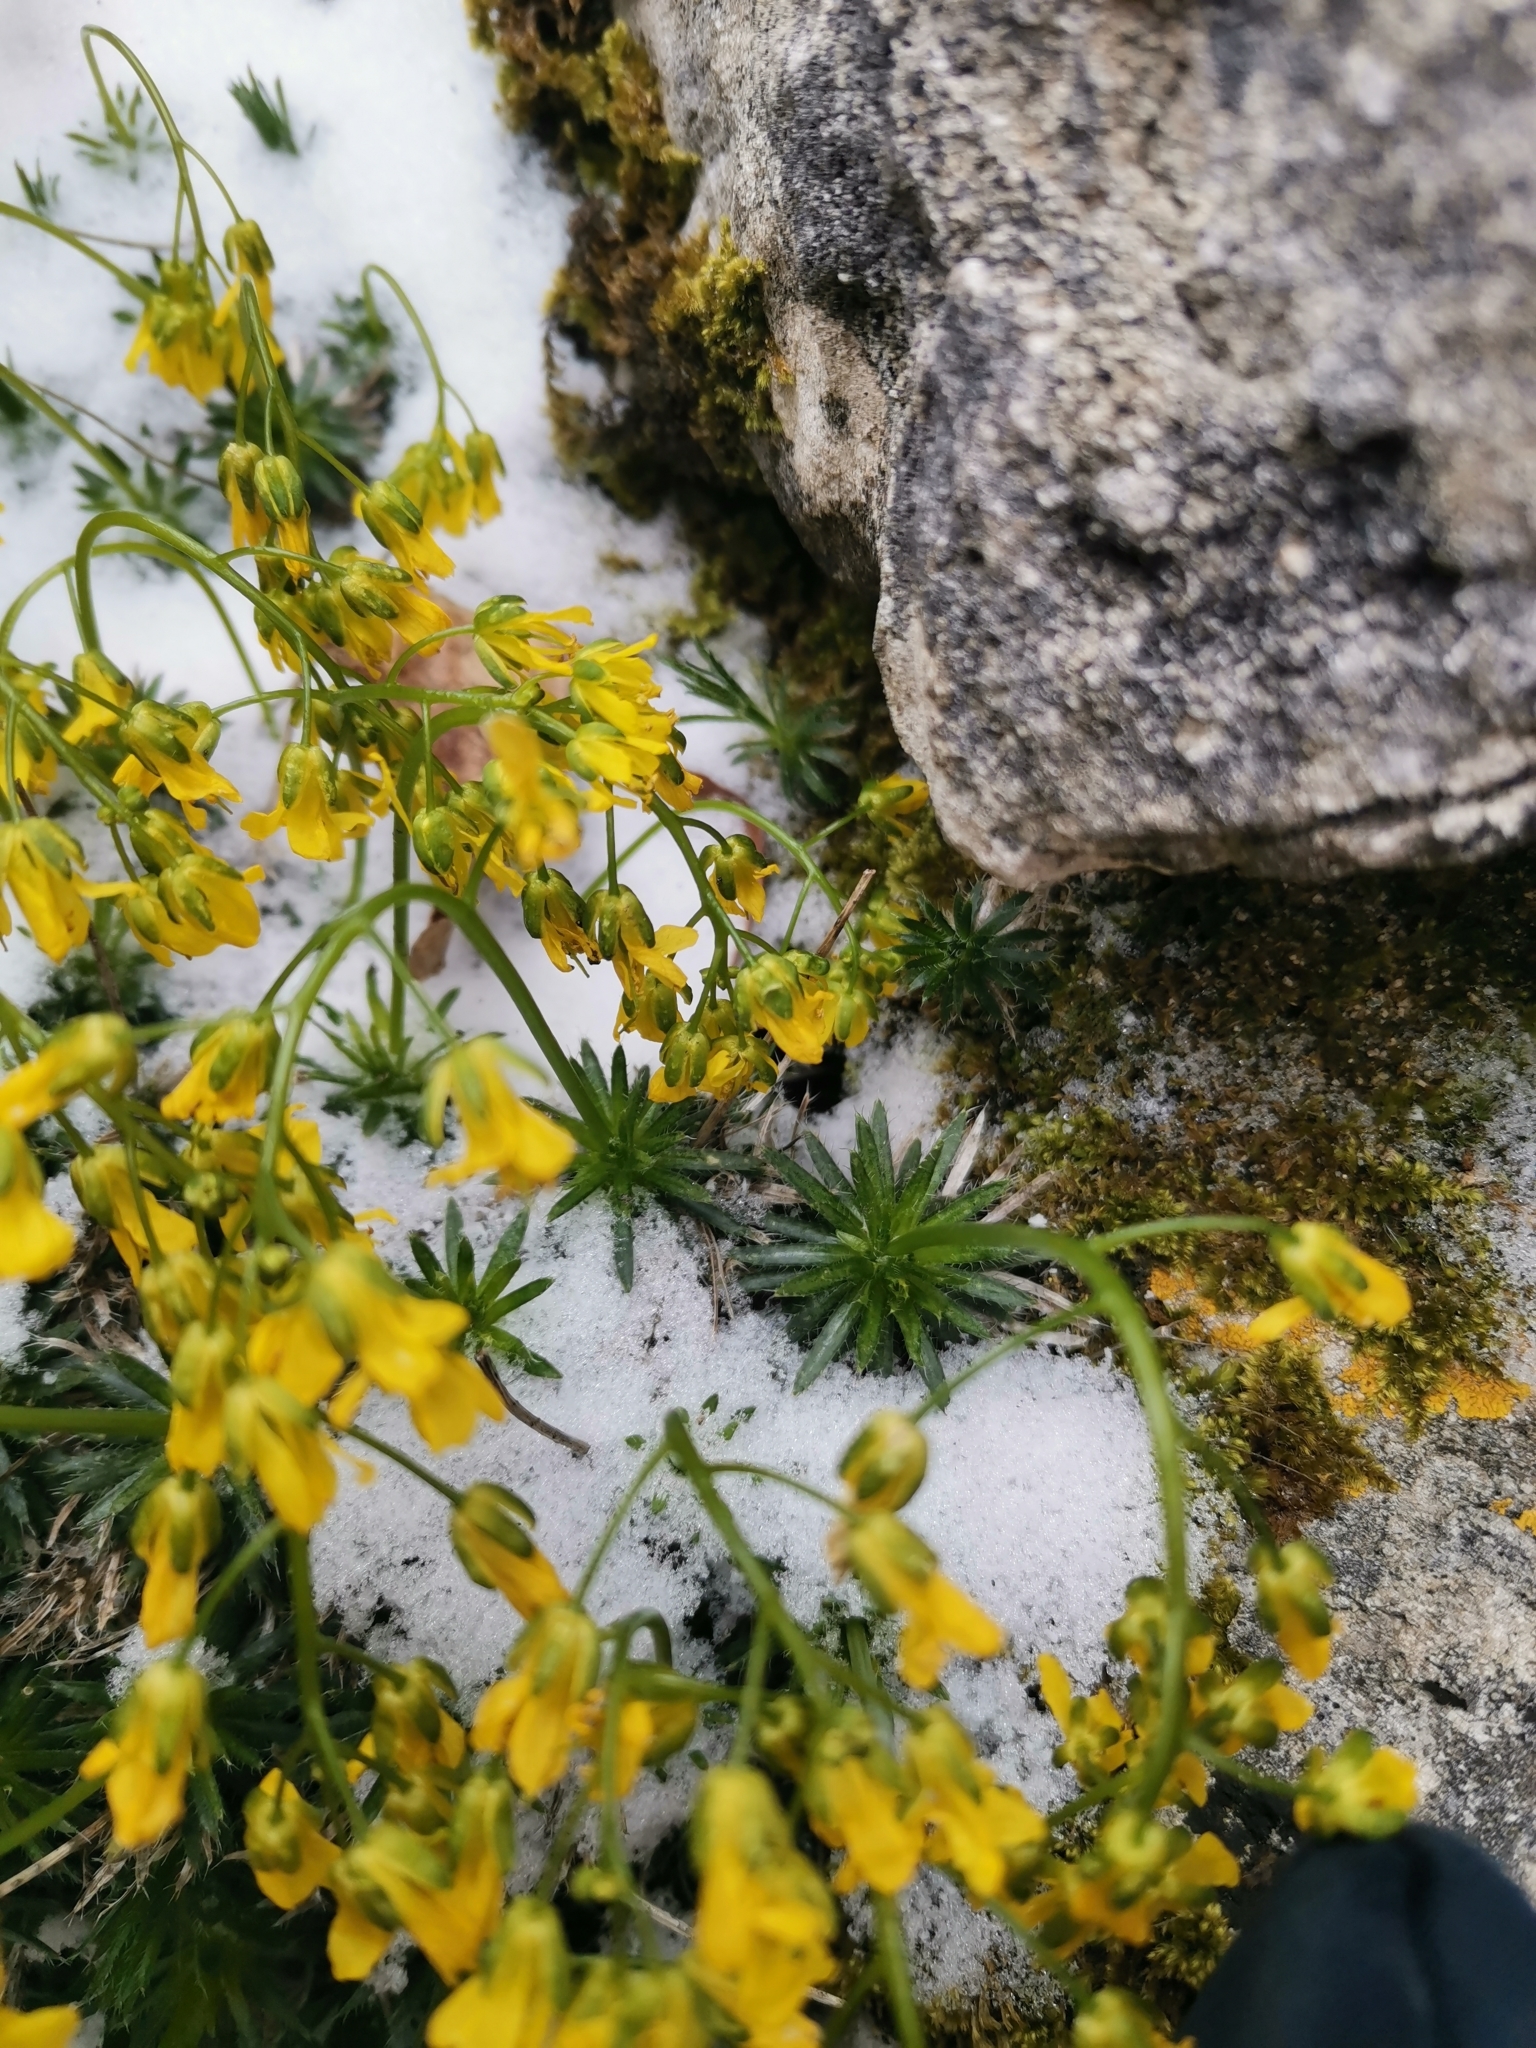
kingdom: Plantae
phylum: Tracheophyta
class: Magnoliopsida
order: Brassicales
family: Brassicaceae
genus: Draba
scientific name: Draba aizoides
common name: Yellow whitlowgrass
